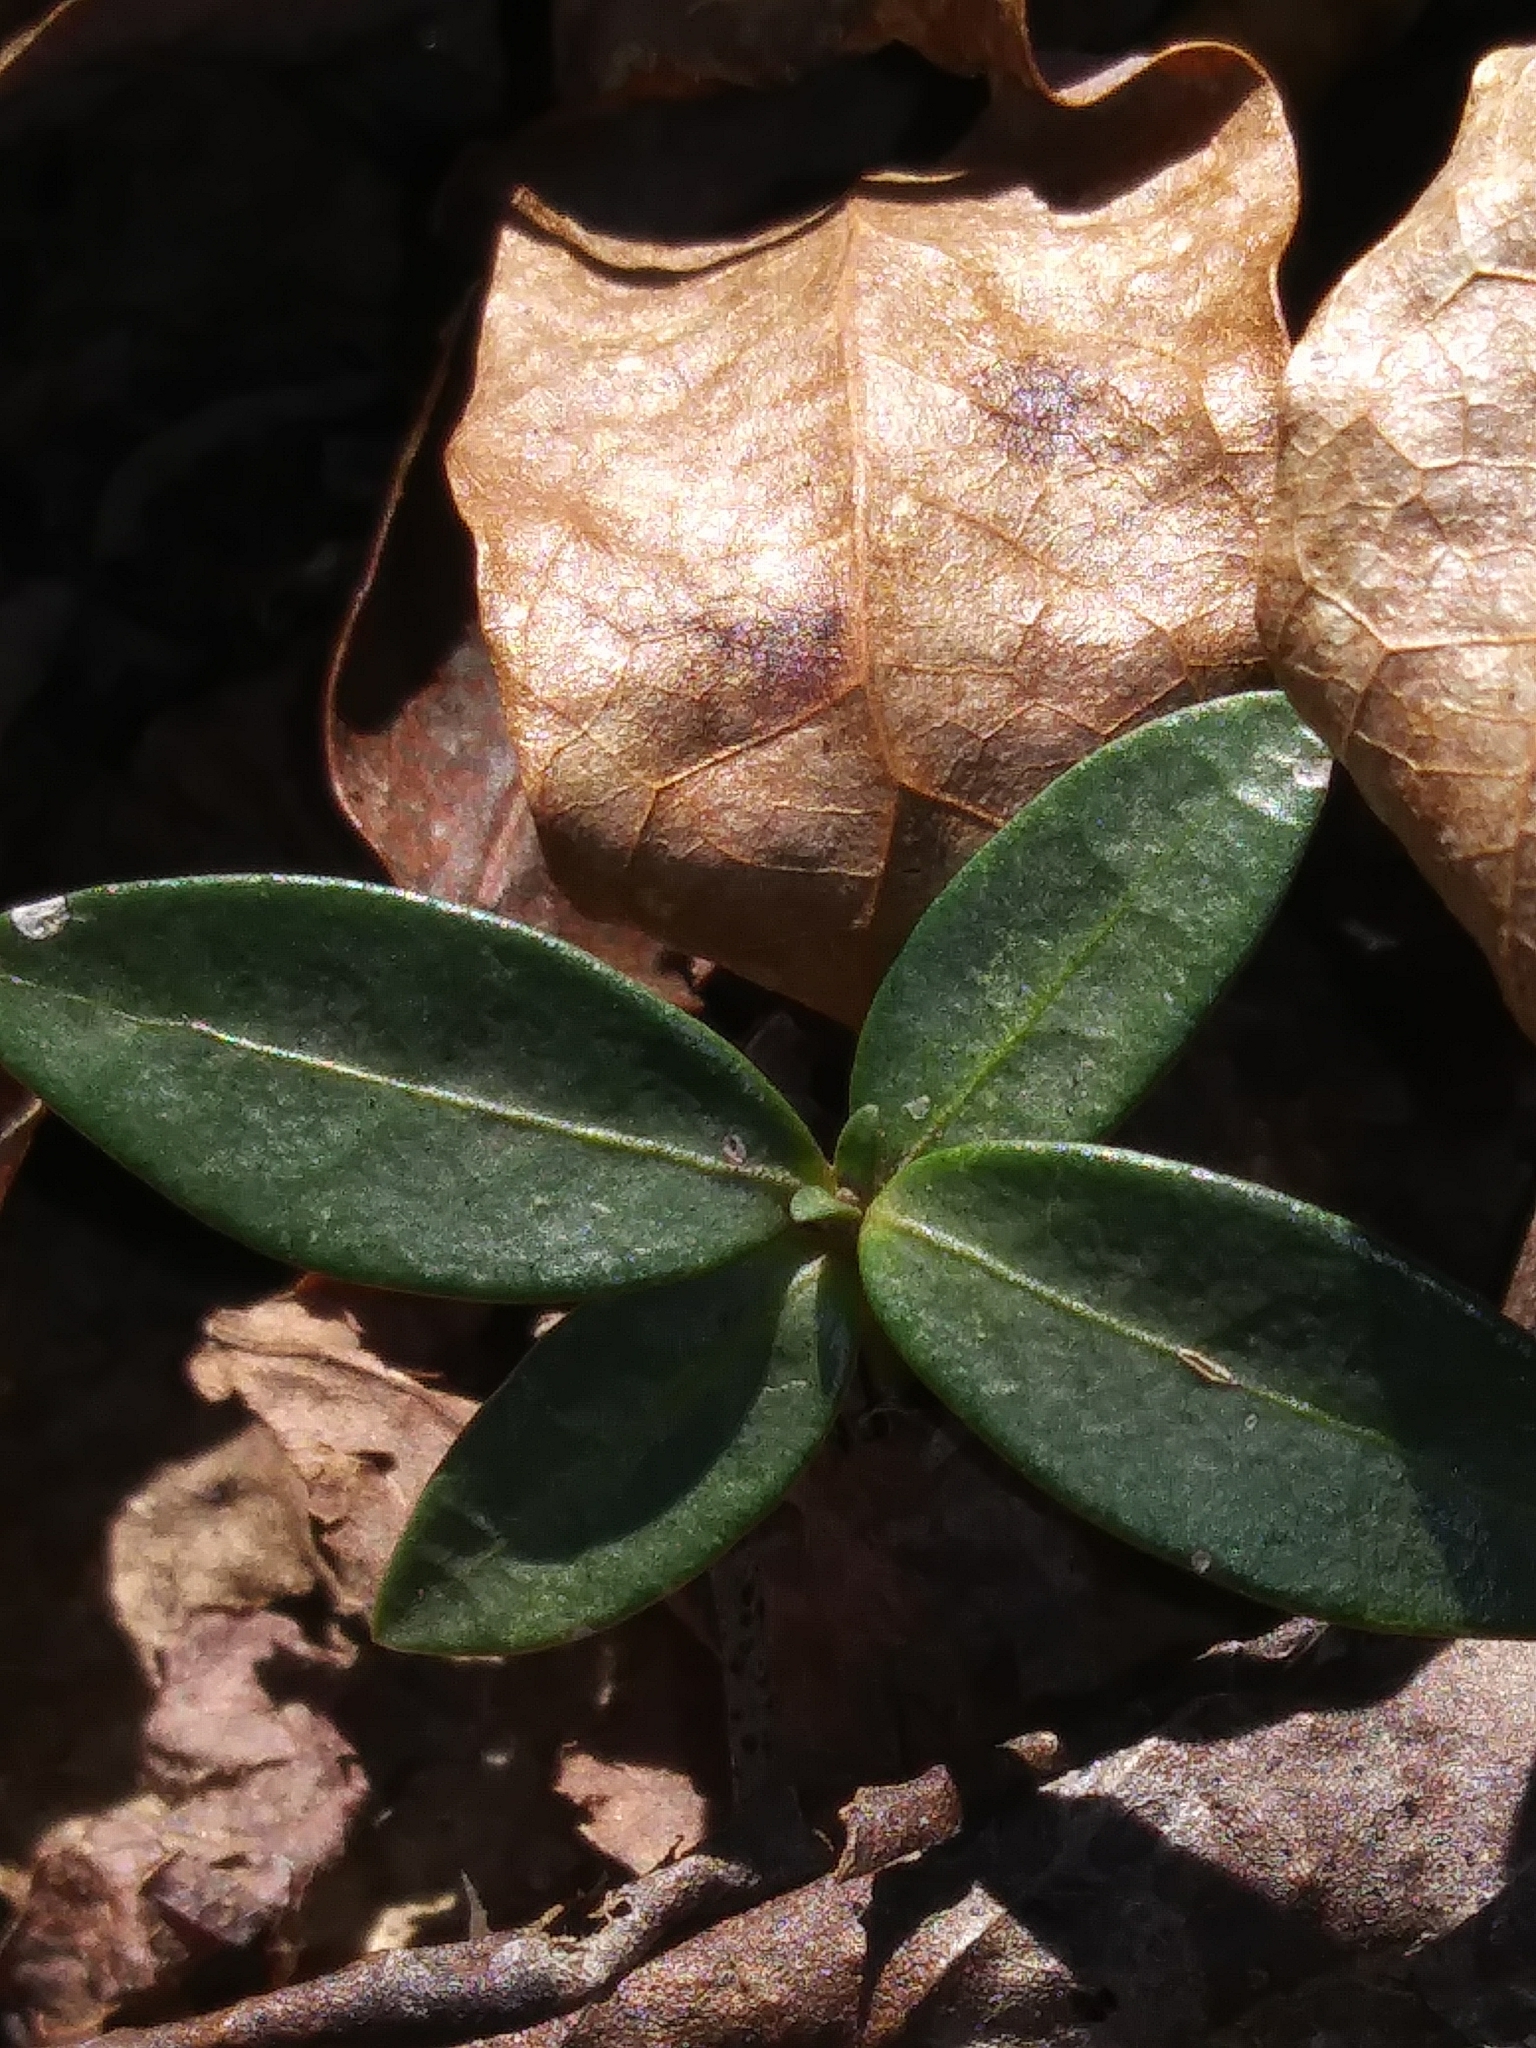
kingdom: Plantae
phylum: Tracheophyta
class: Magnoliopsida
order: Gentianales
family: Apocynaceae
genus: Vinca
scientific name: Vinca minor
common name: Lesser periwinkle
